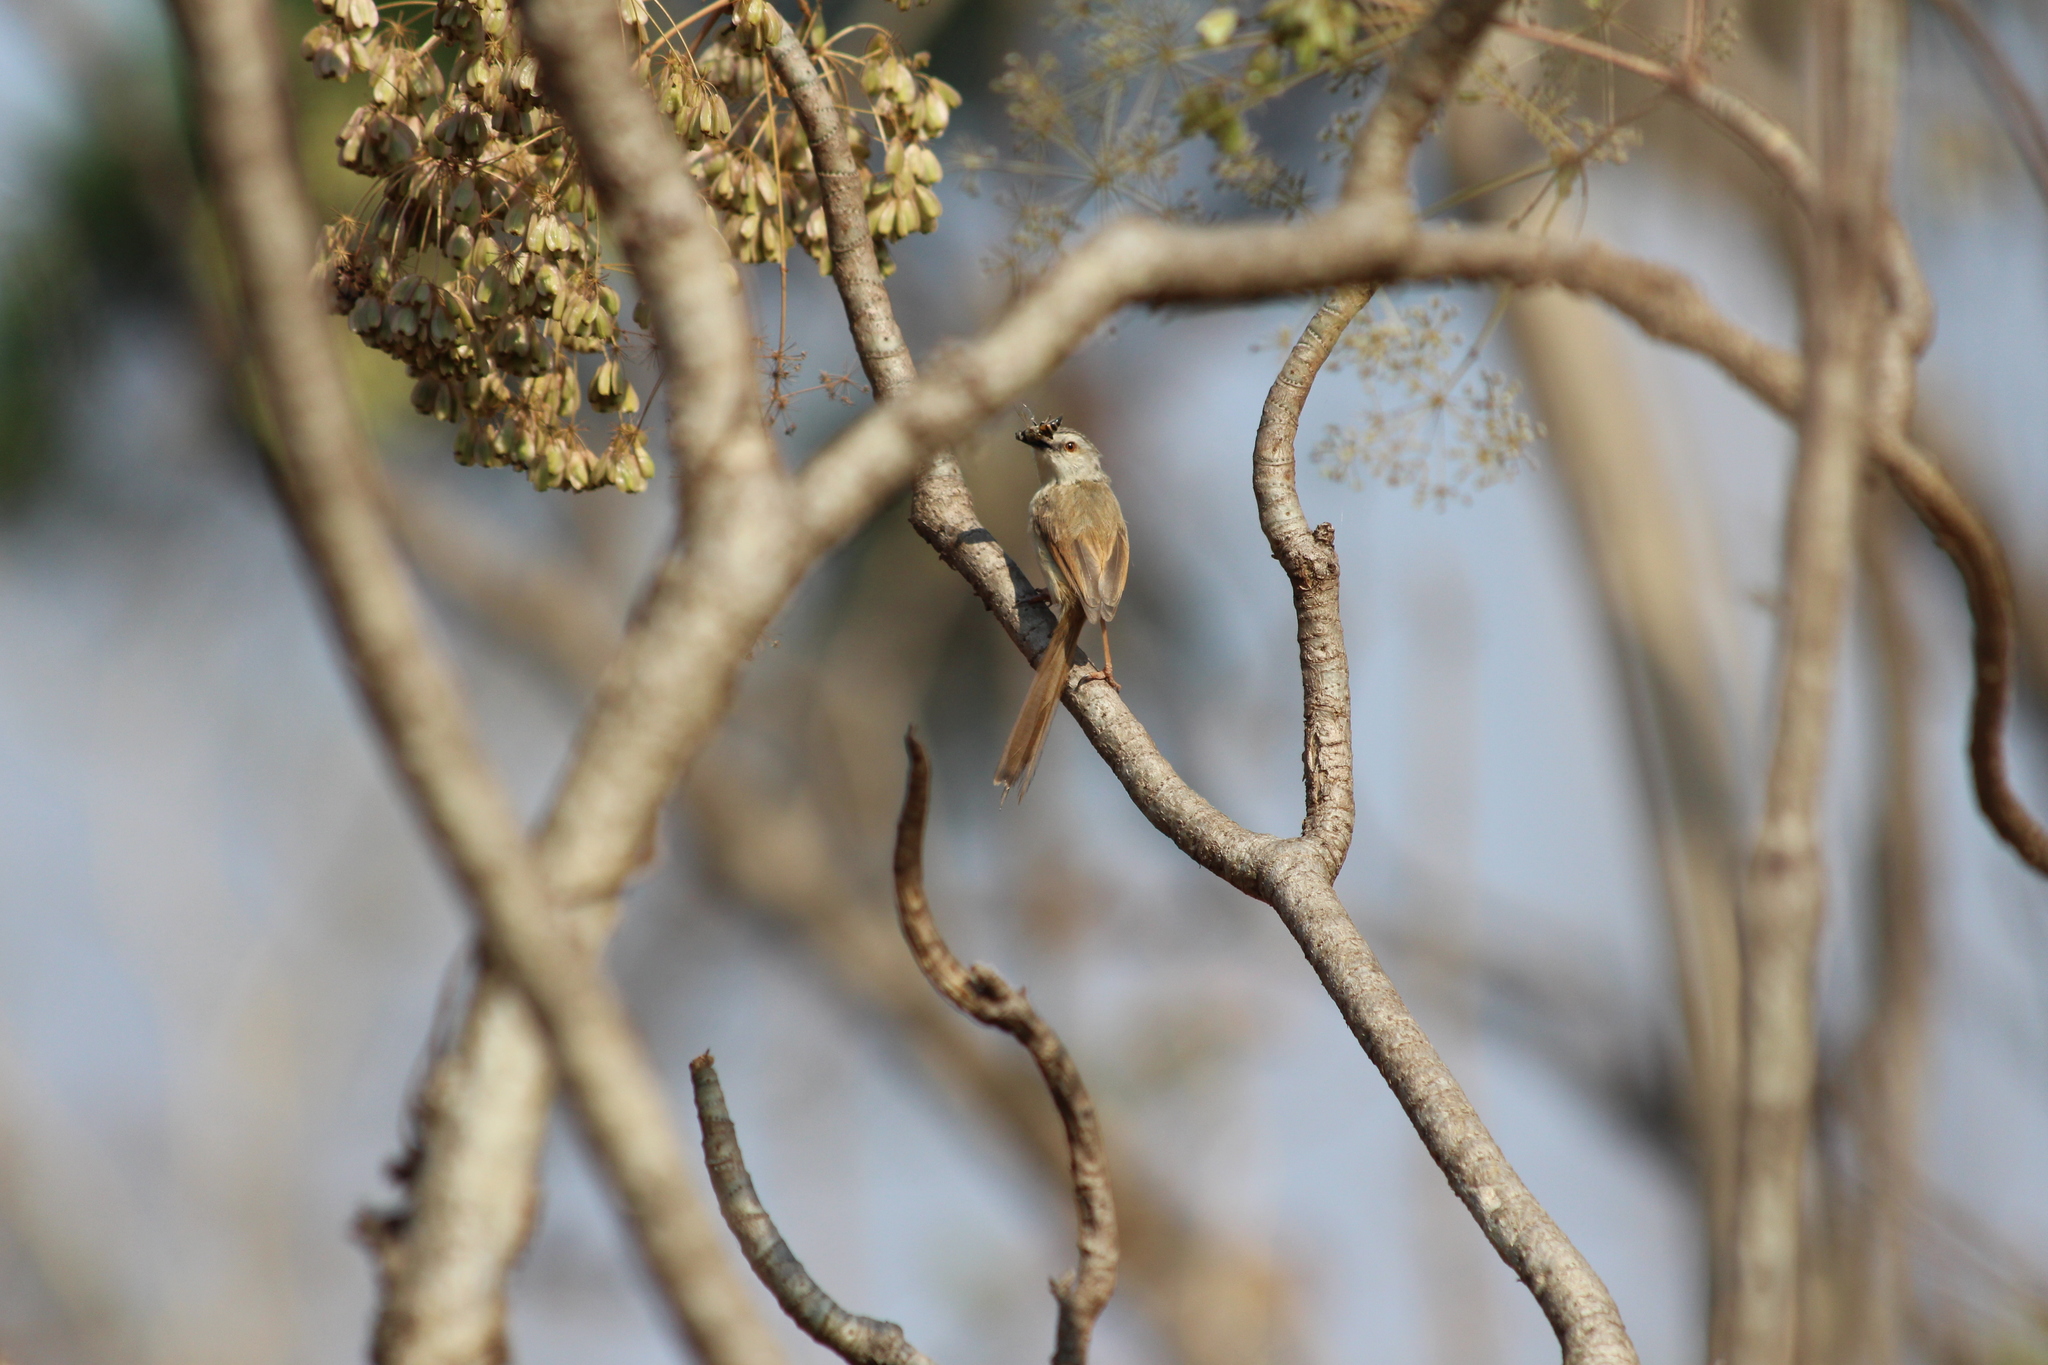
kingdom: Animalia
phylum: Chordata
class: Aves
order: Passeriformes
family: Cisticolidae
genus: Prinia
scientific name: Prinia subflava
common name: Tawny-flanked prinia
